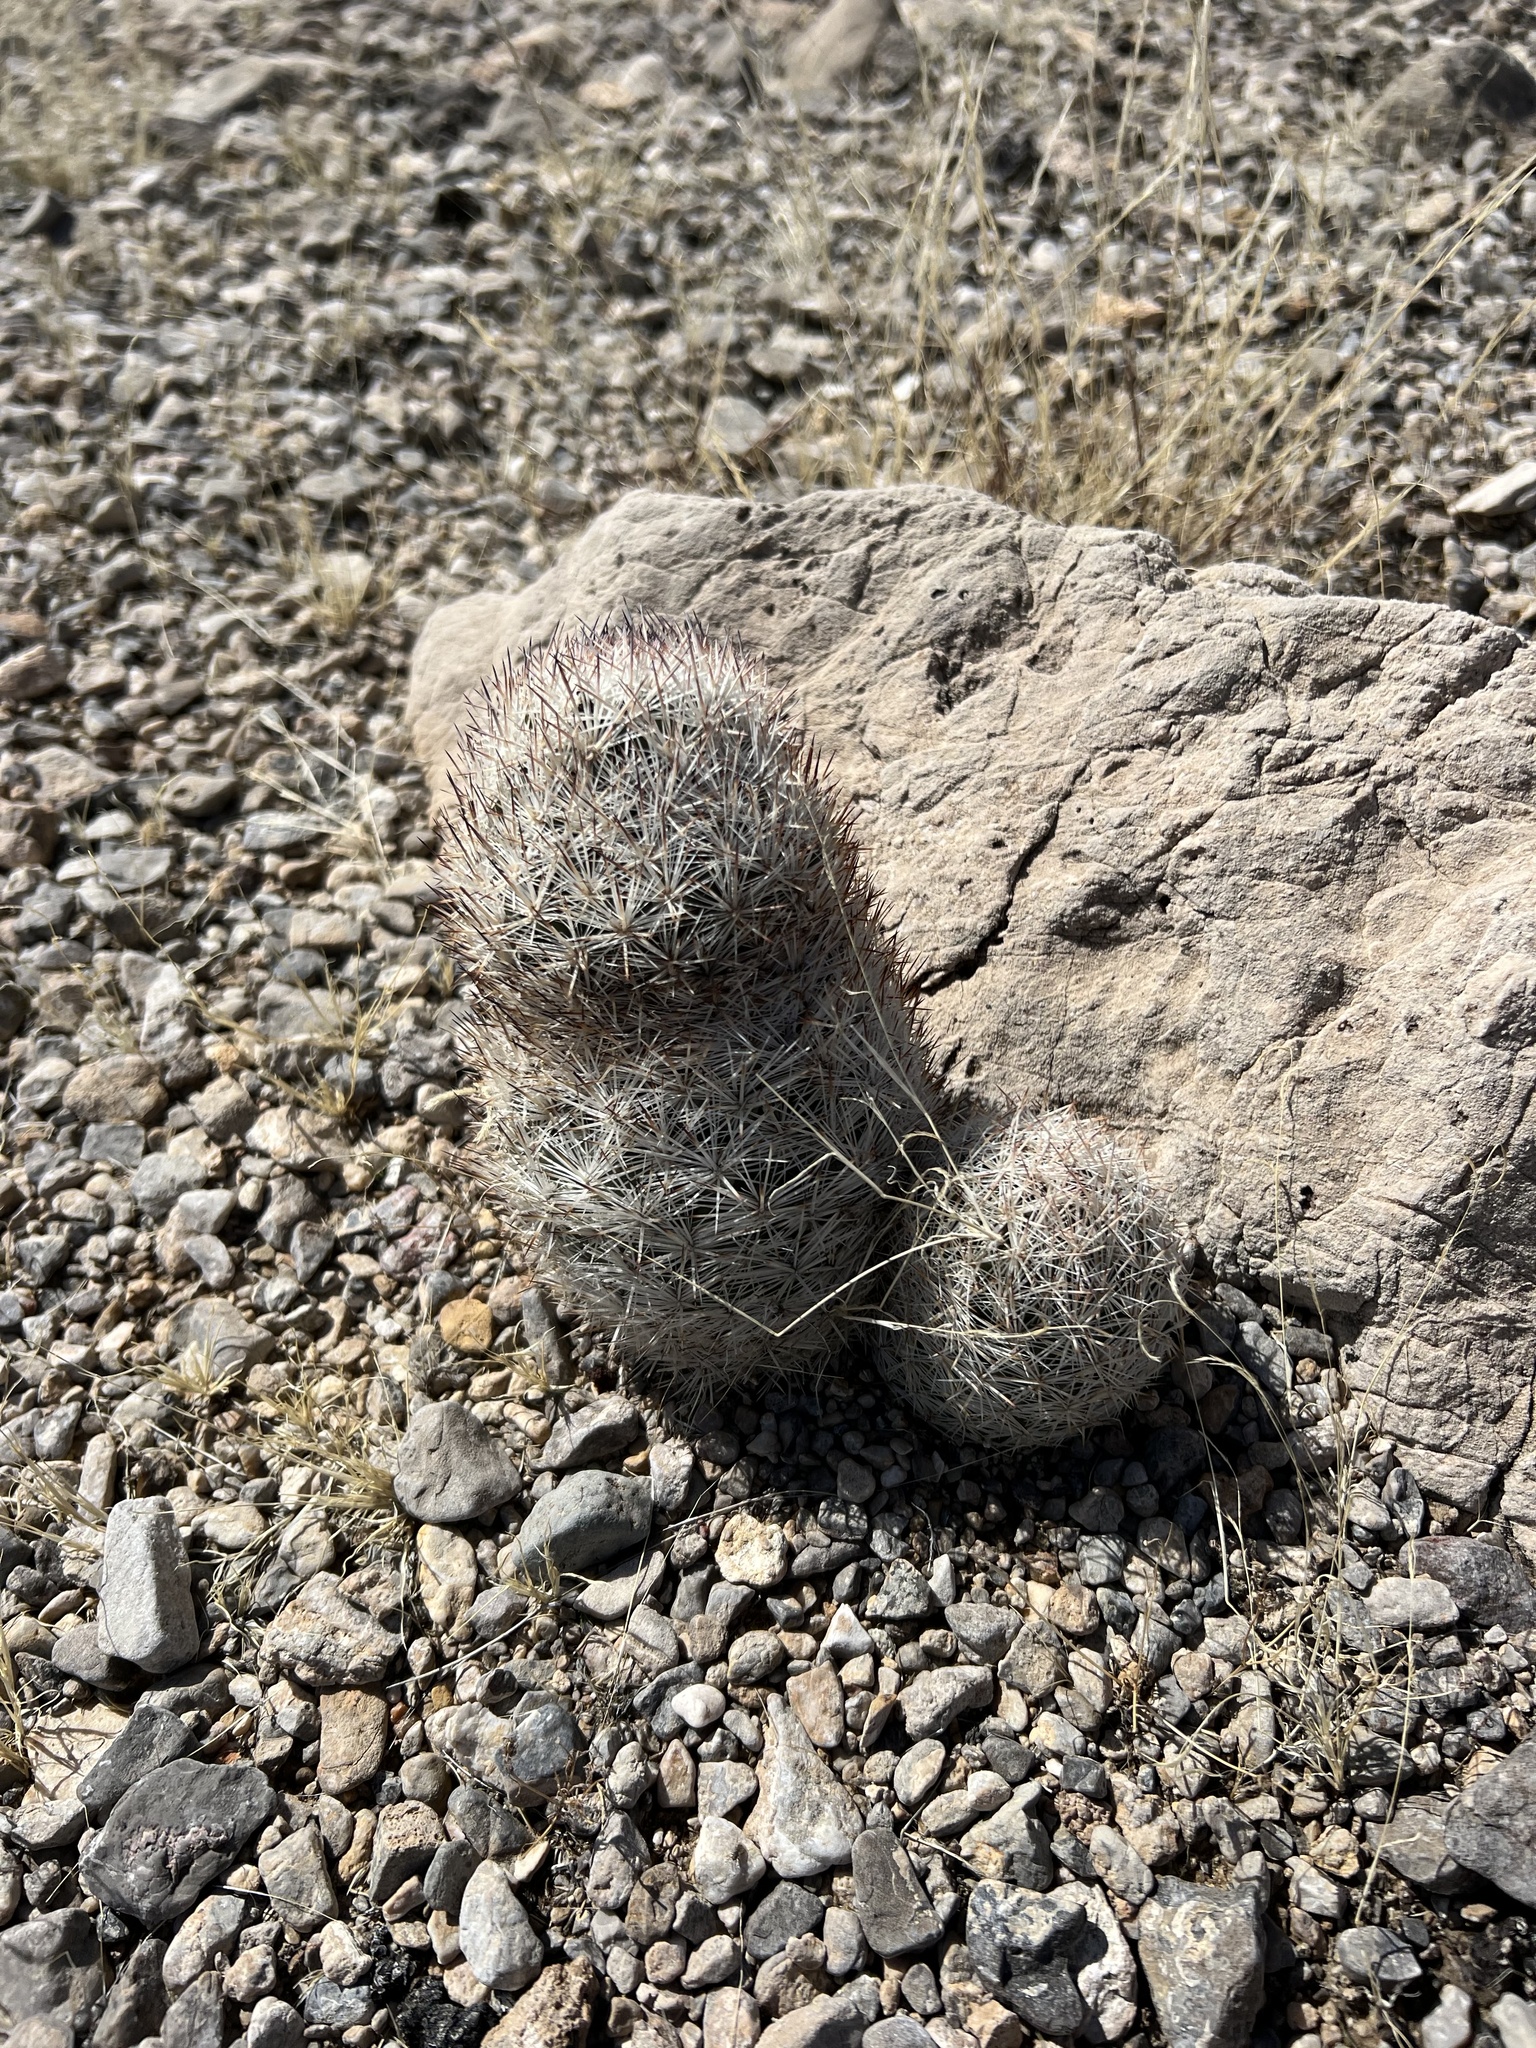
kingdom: Plantae
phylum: Tracheophyta
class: Magnoliopsida
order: Caryophyllales
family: Cactaceae
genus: Pelecyphora
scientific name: Pelecyphora dasyacantha
